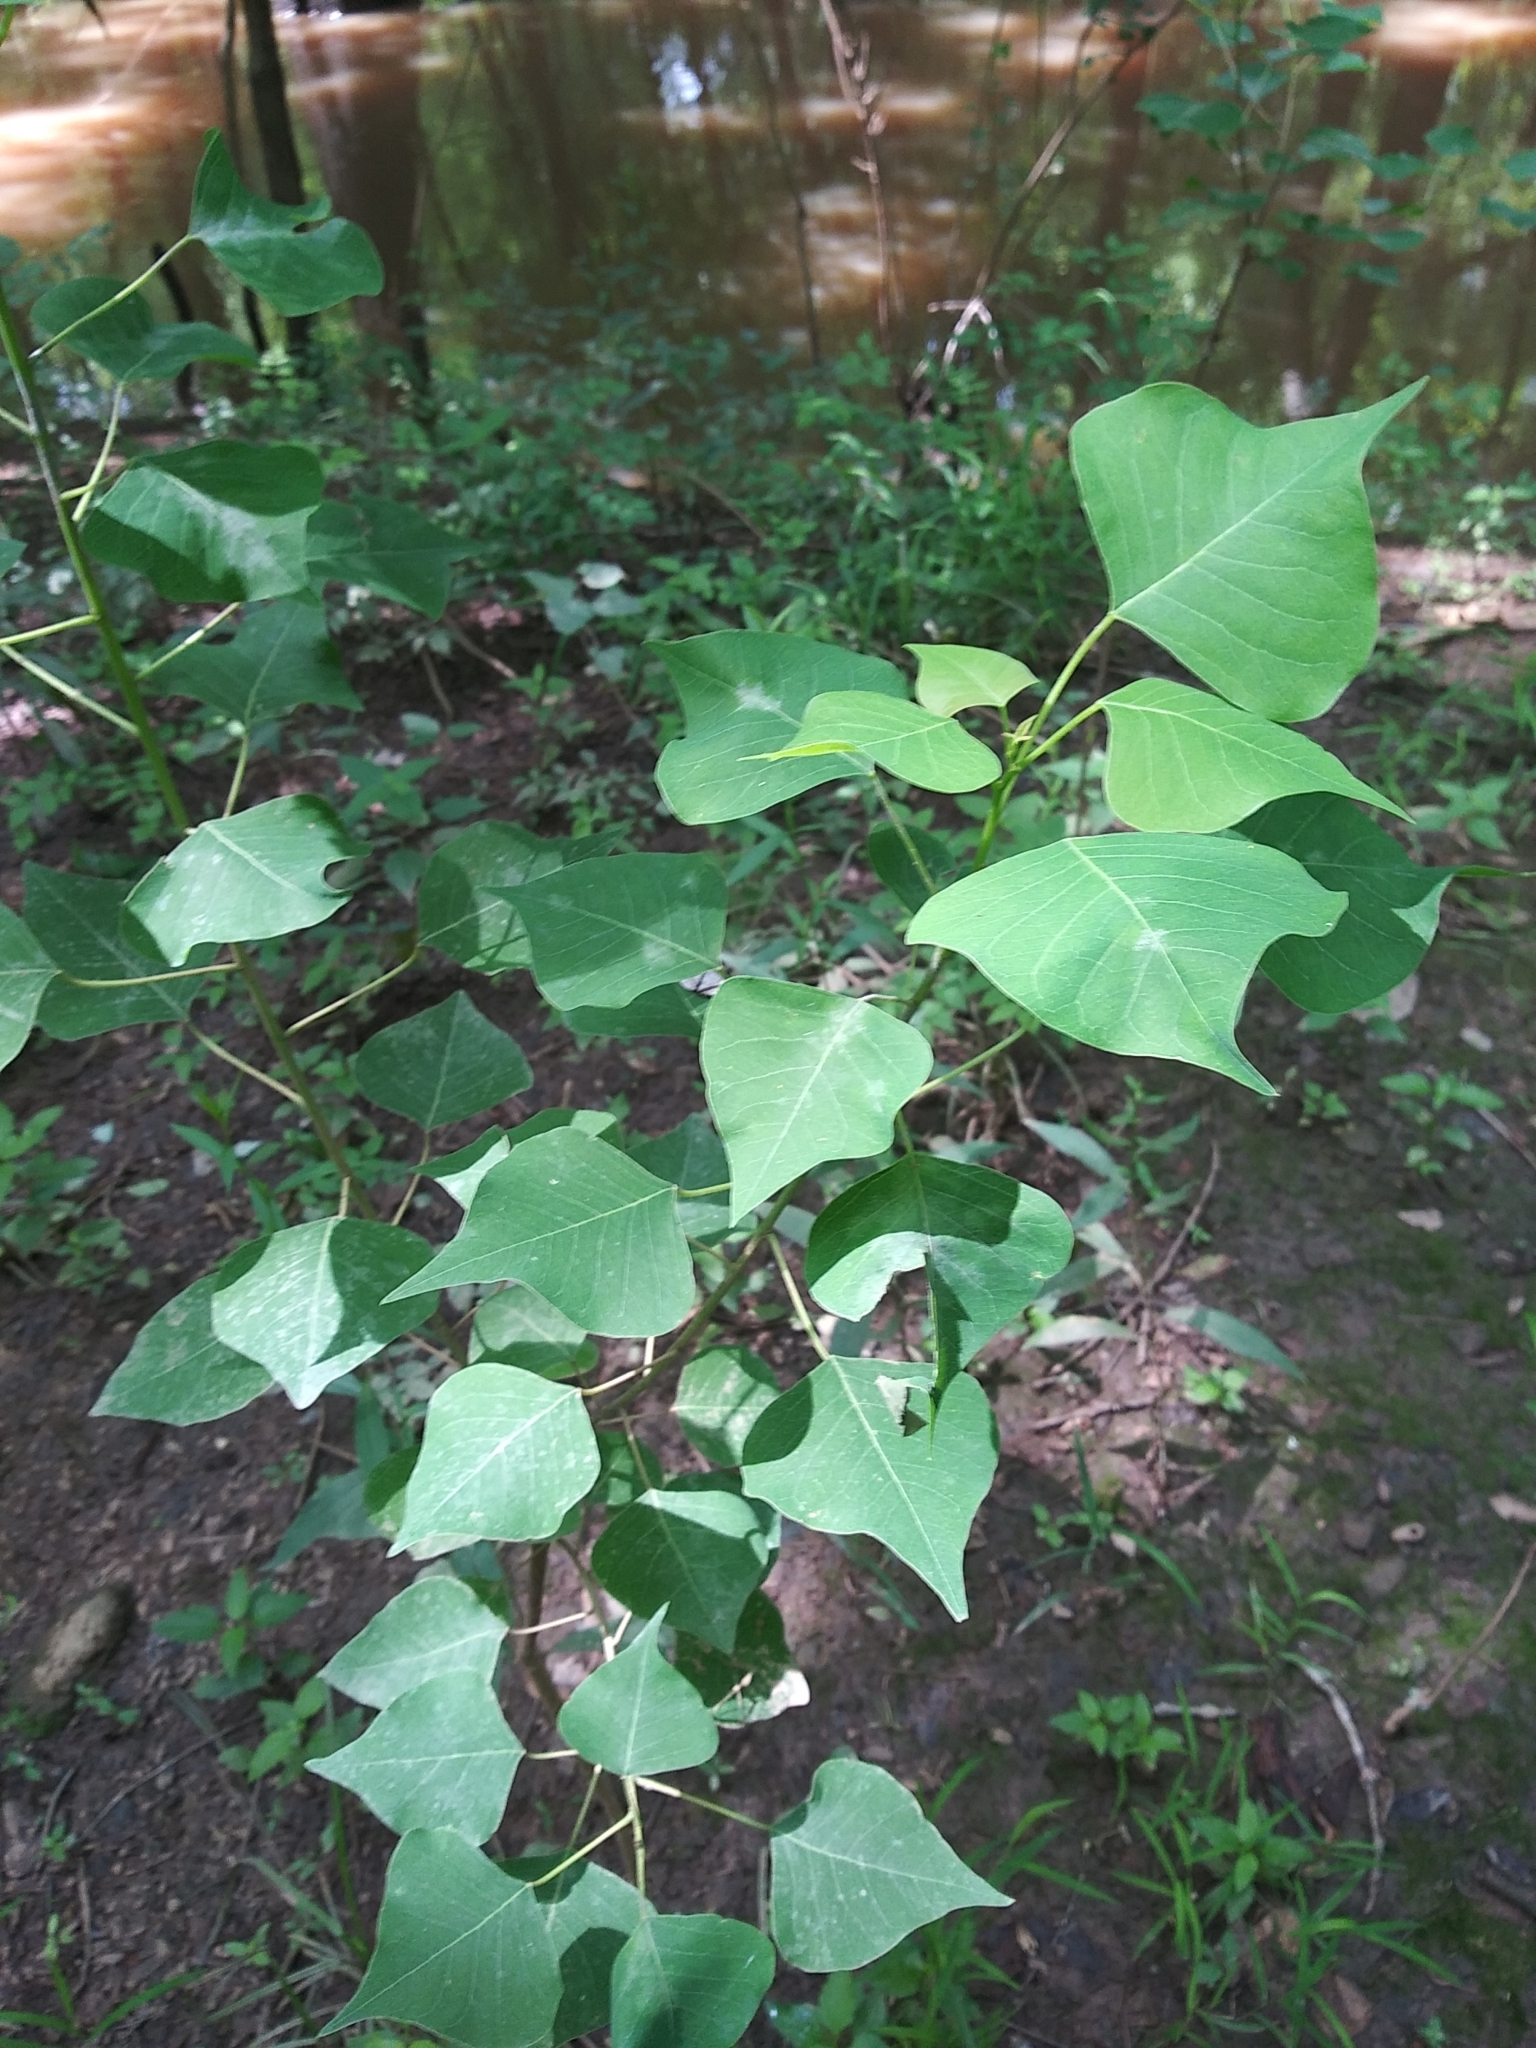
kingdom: Plantae
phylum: Tracheophyta
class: Magnoliopsida
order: Malpighiales
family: Euphorbiaceae
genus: Triadica
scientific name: Triadica sebifera
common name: Chinese tallow
